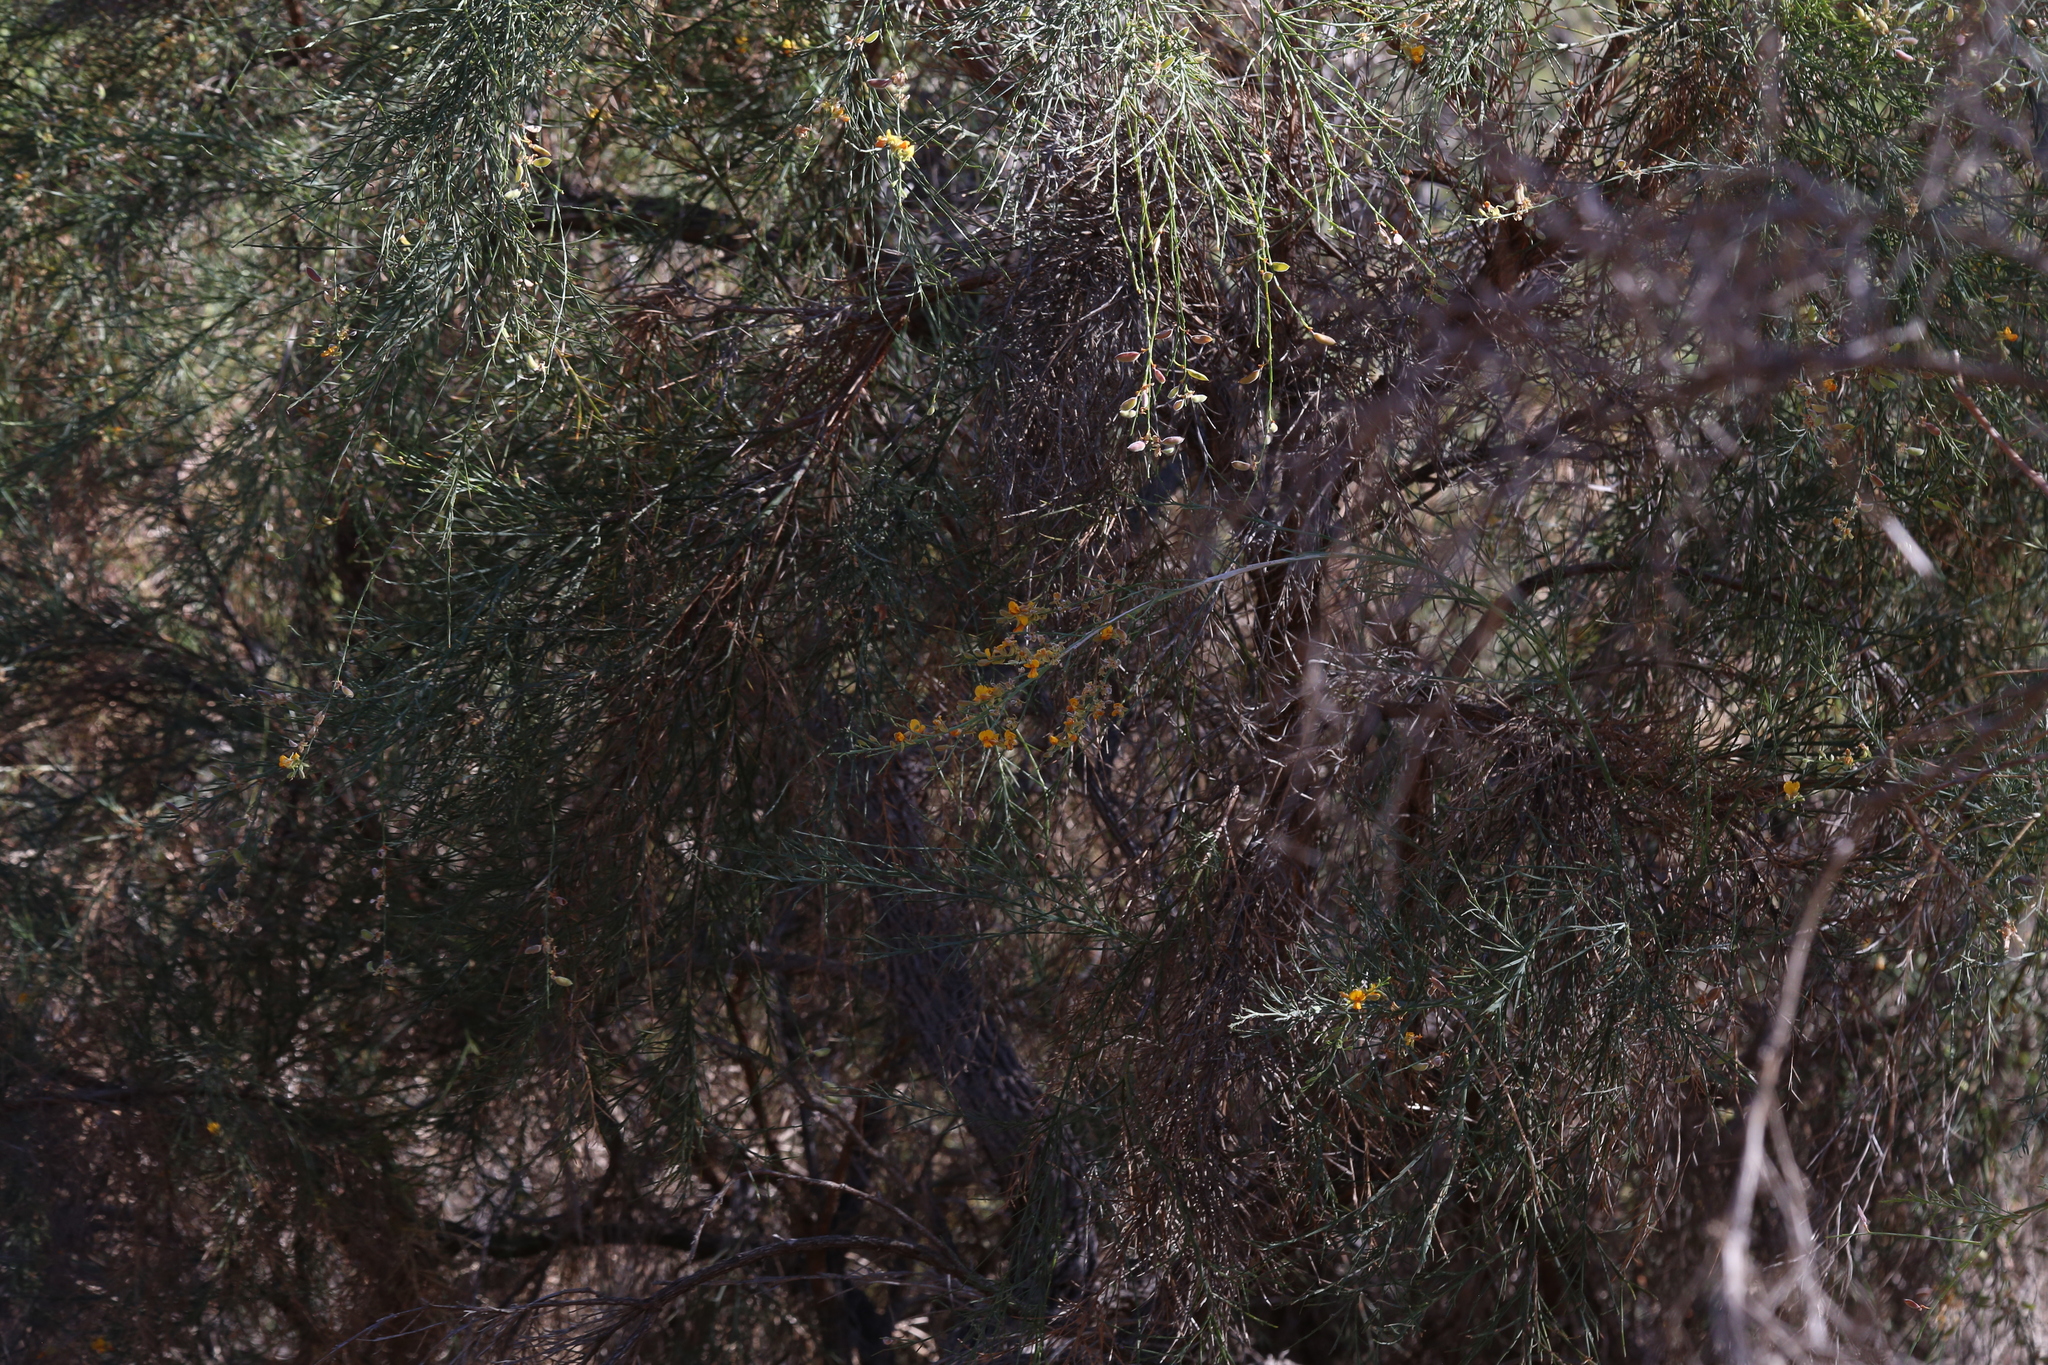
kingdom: Plantae
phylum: Tracheophyta
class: Magnoliopsida
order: Fabales
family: Fabaceae
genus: Jacksonia
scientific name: Jacksonia sternbergiana
